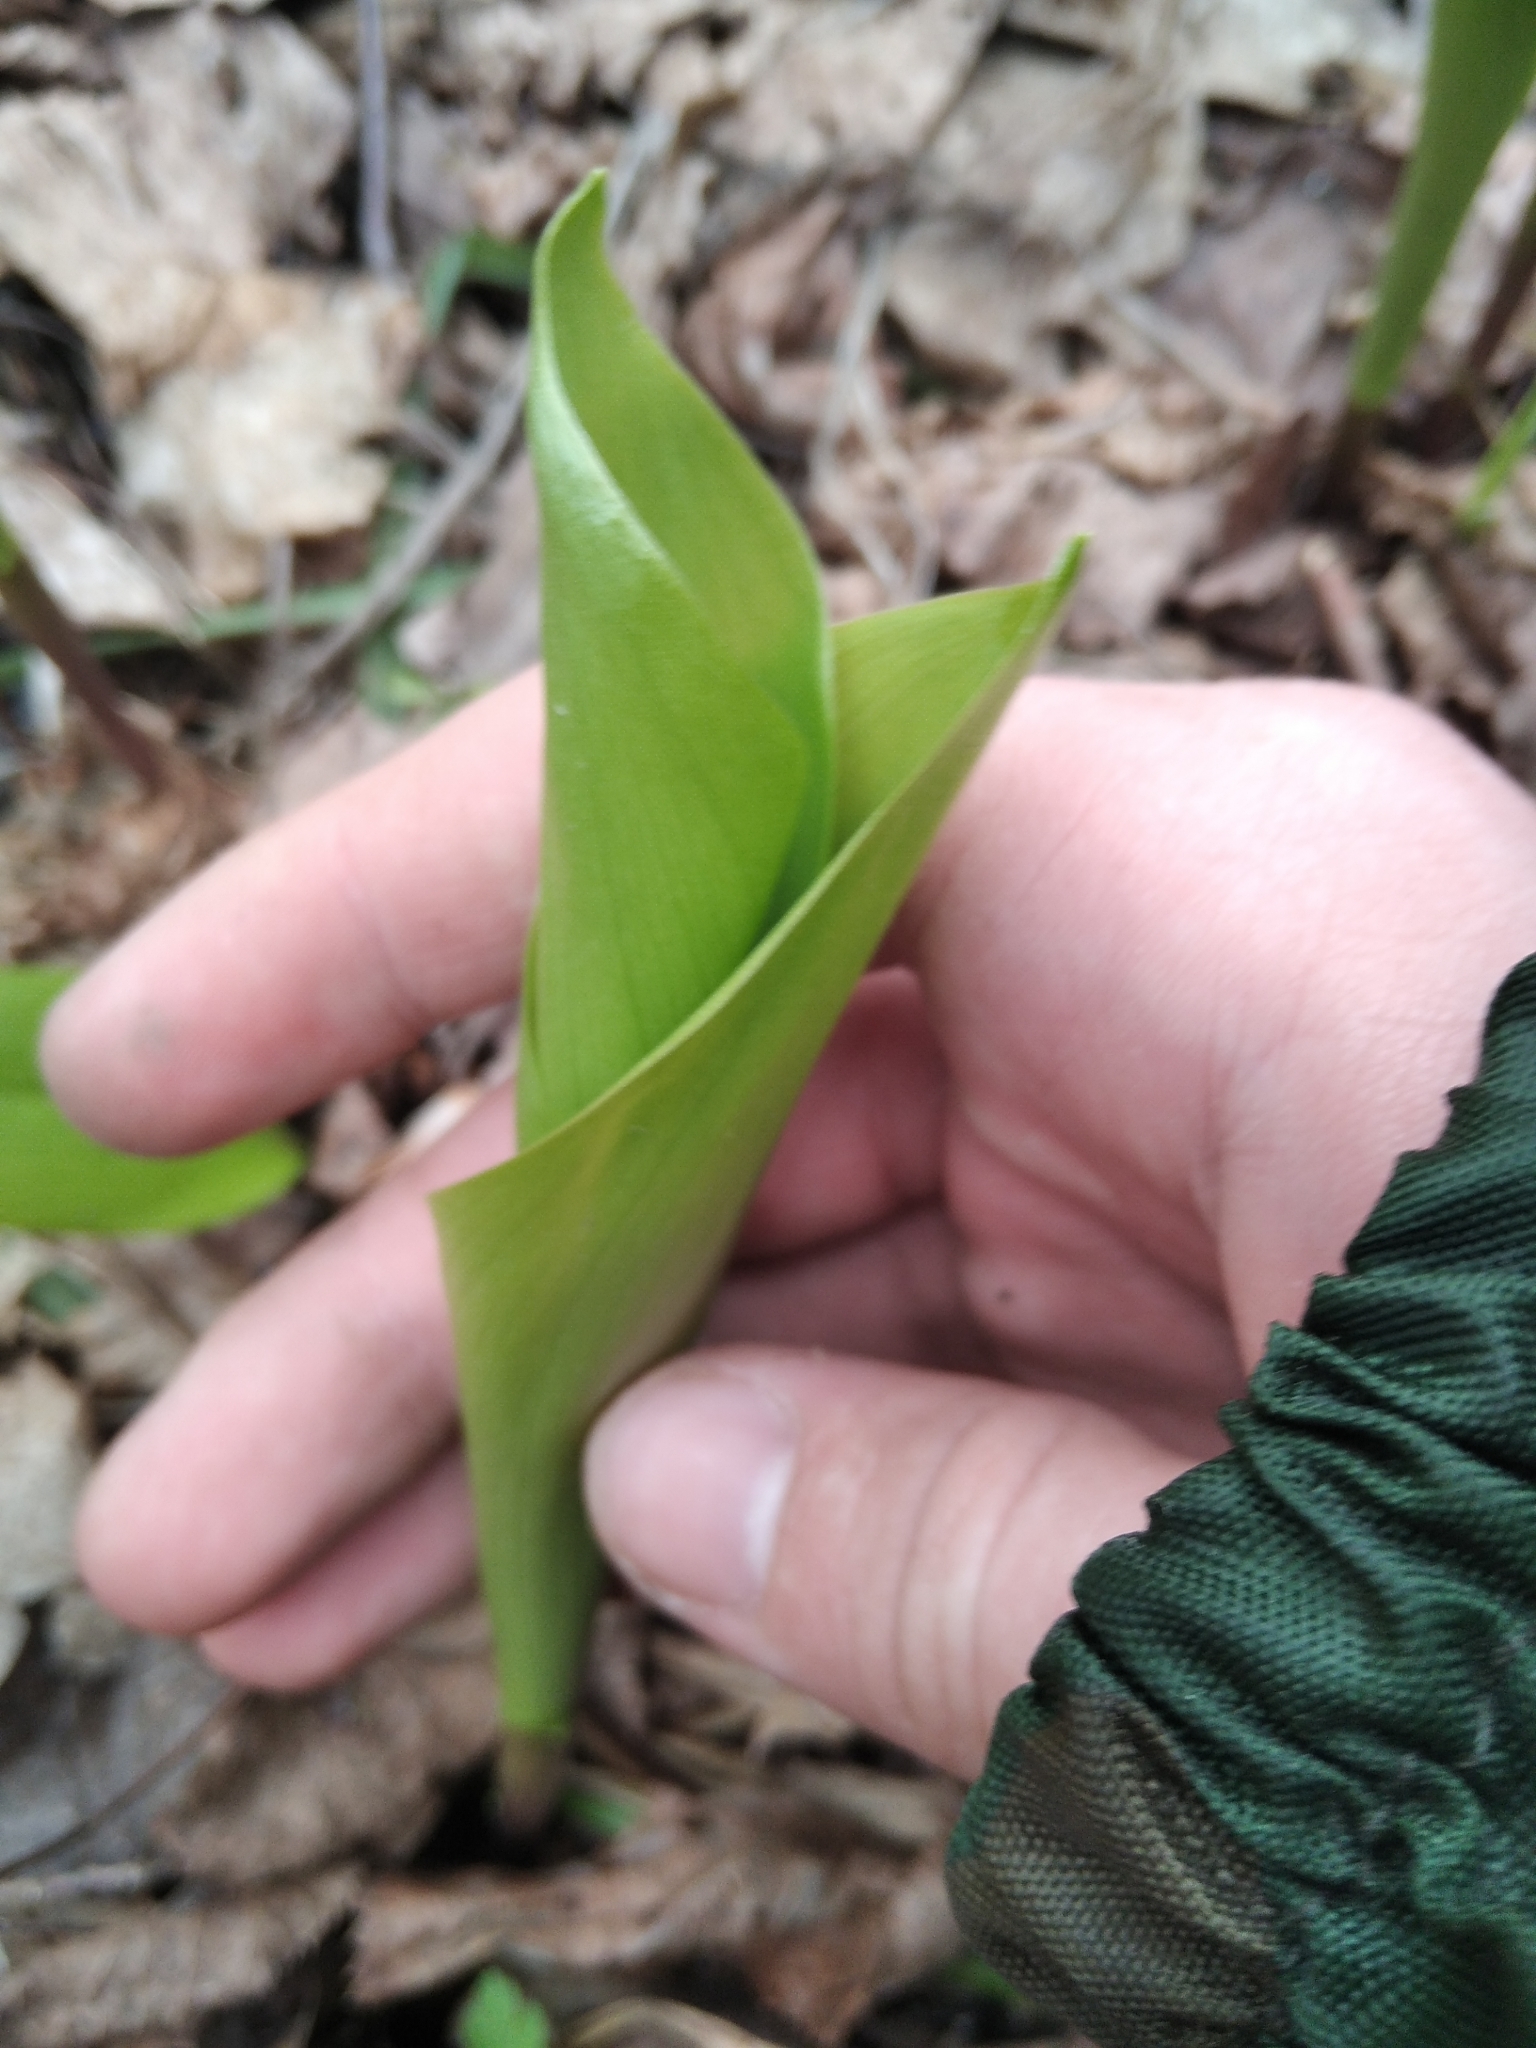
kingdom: Plantae
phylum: Tracheophyta
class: Liliopsida
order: Asparagales
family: Asparagaceae
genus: Convallaria
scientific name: Convallaria majalis
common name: Lily-of-the-valley
